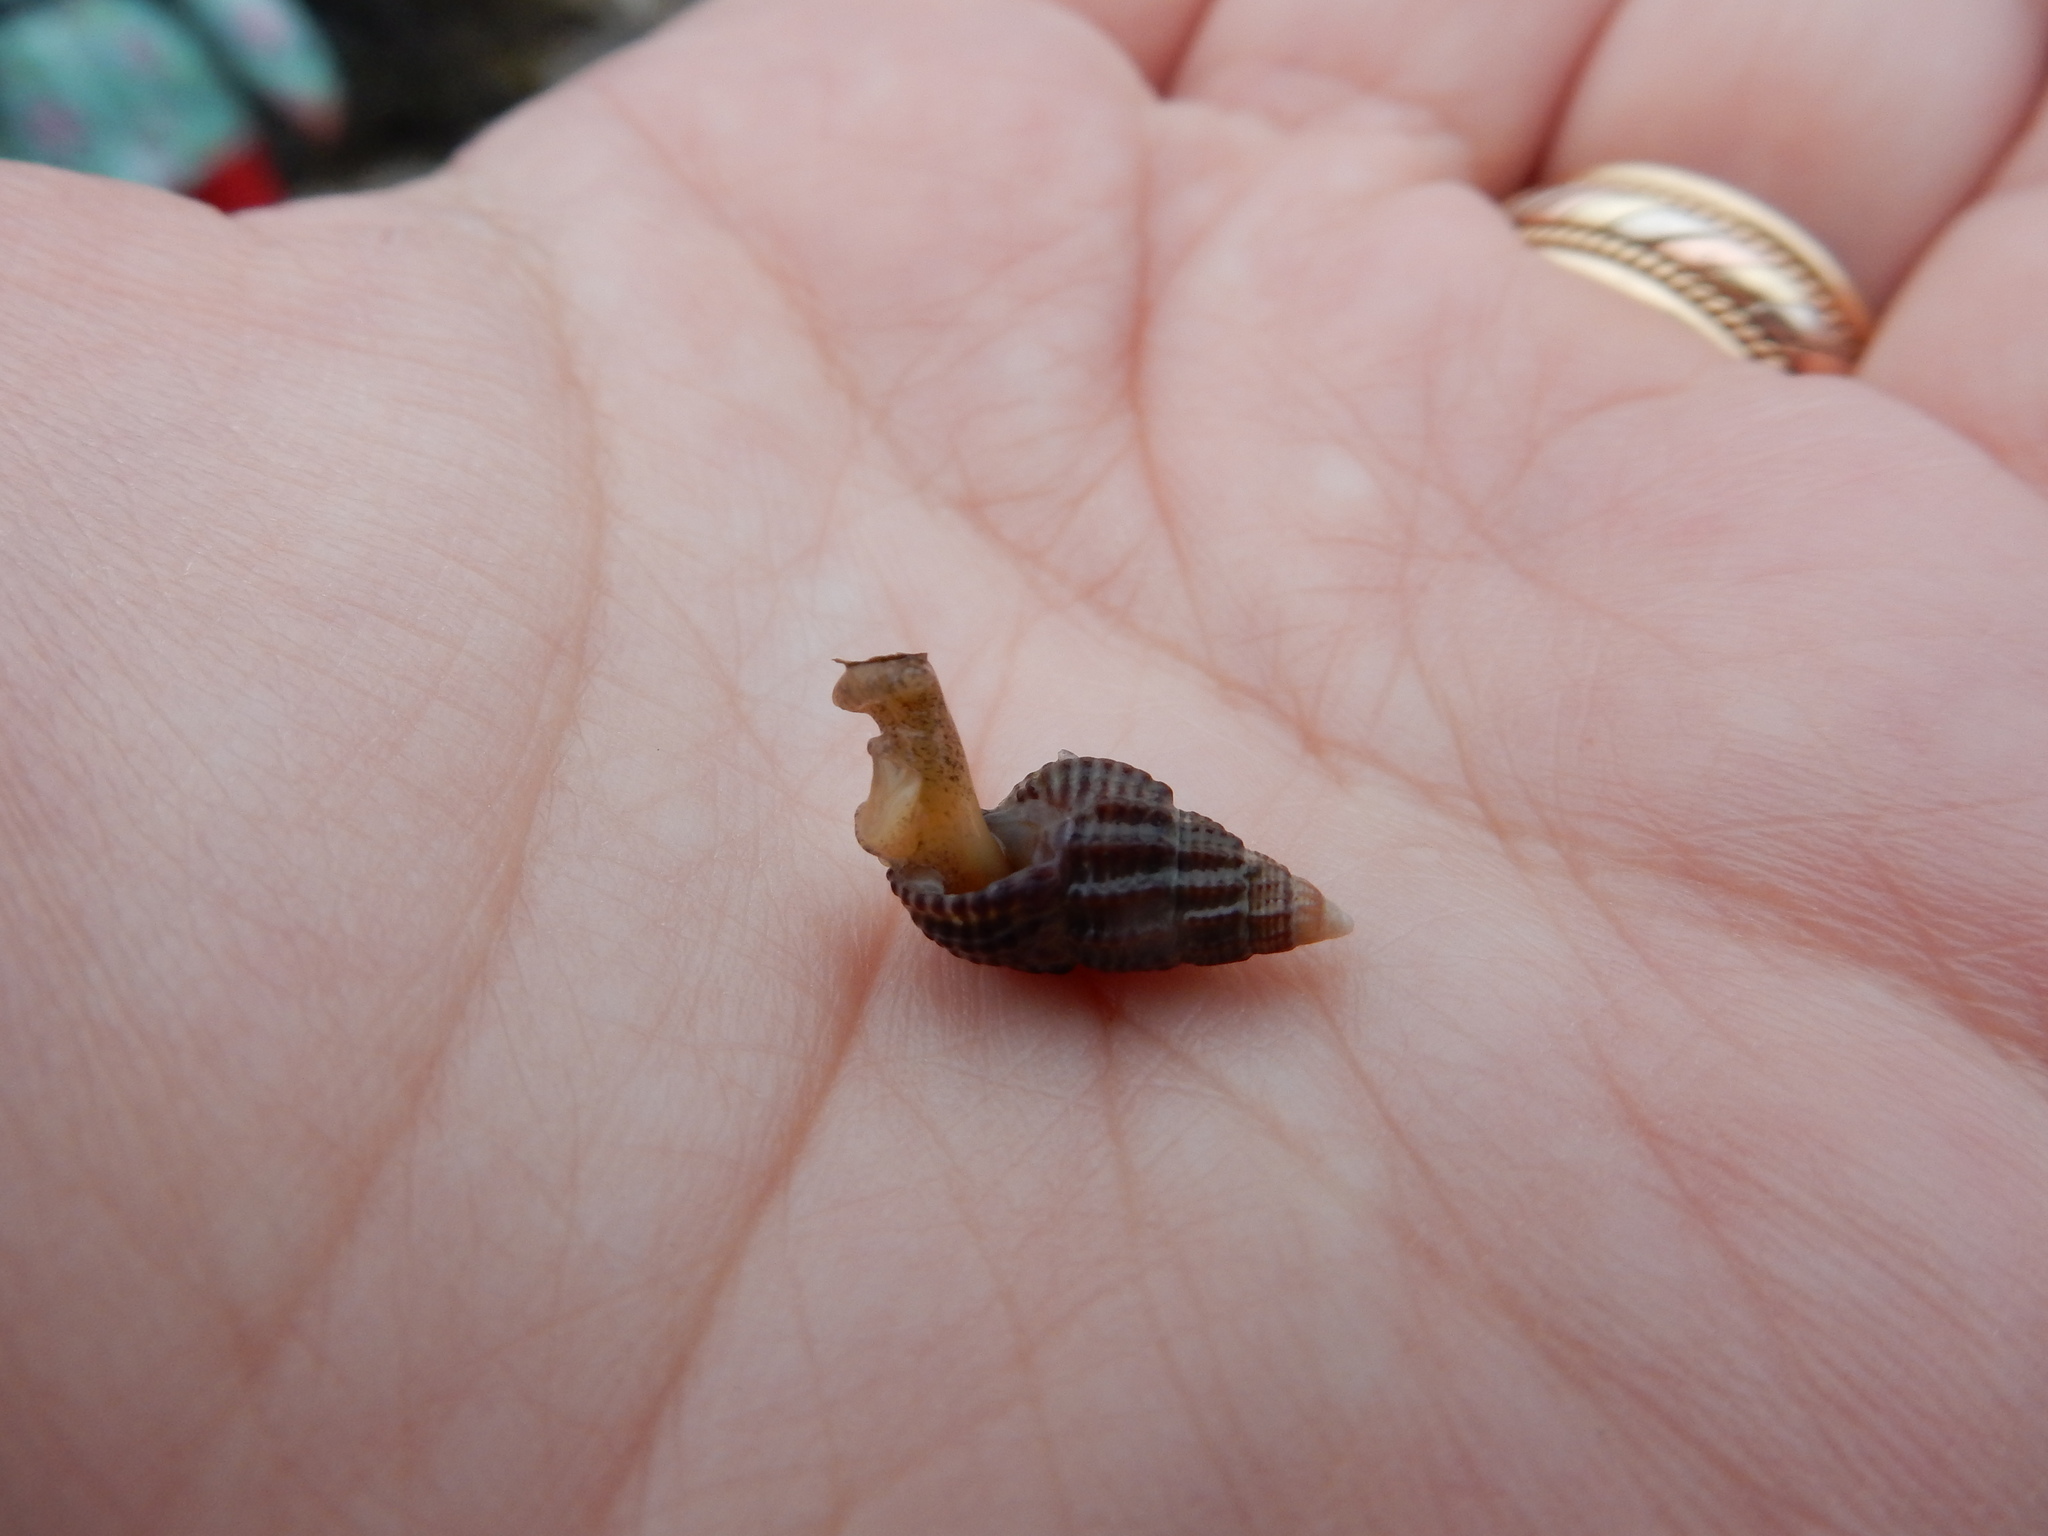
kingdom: Animalia
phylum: Mollusca
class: Gastropoda
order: Neogastropoda
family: Nassariidae
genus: Ilyanassa
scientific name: Ilyanassa trivittata
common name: Three-line mudsnail
